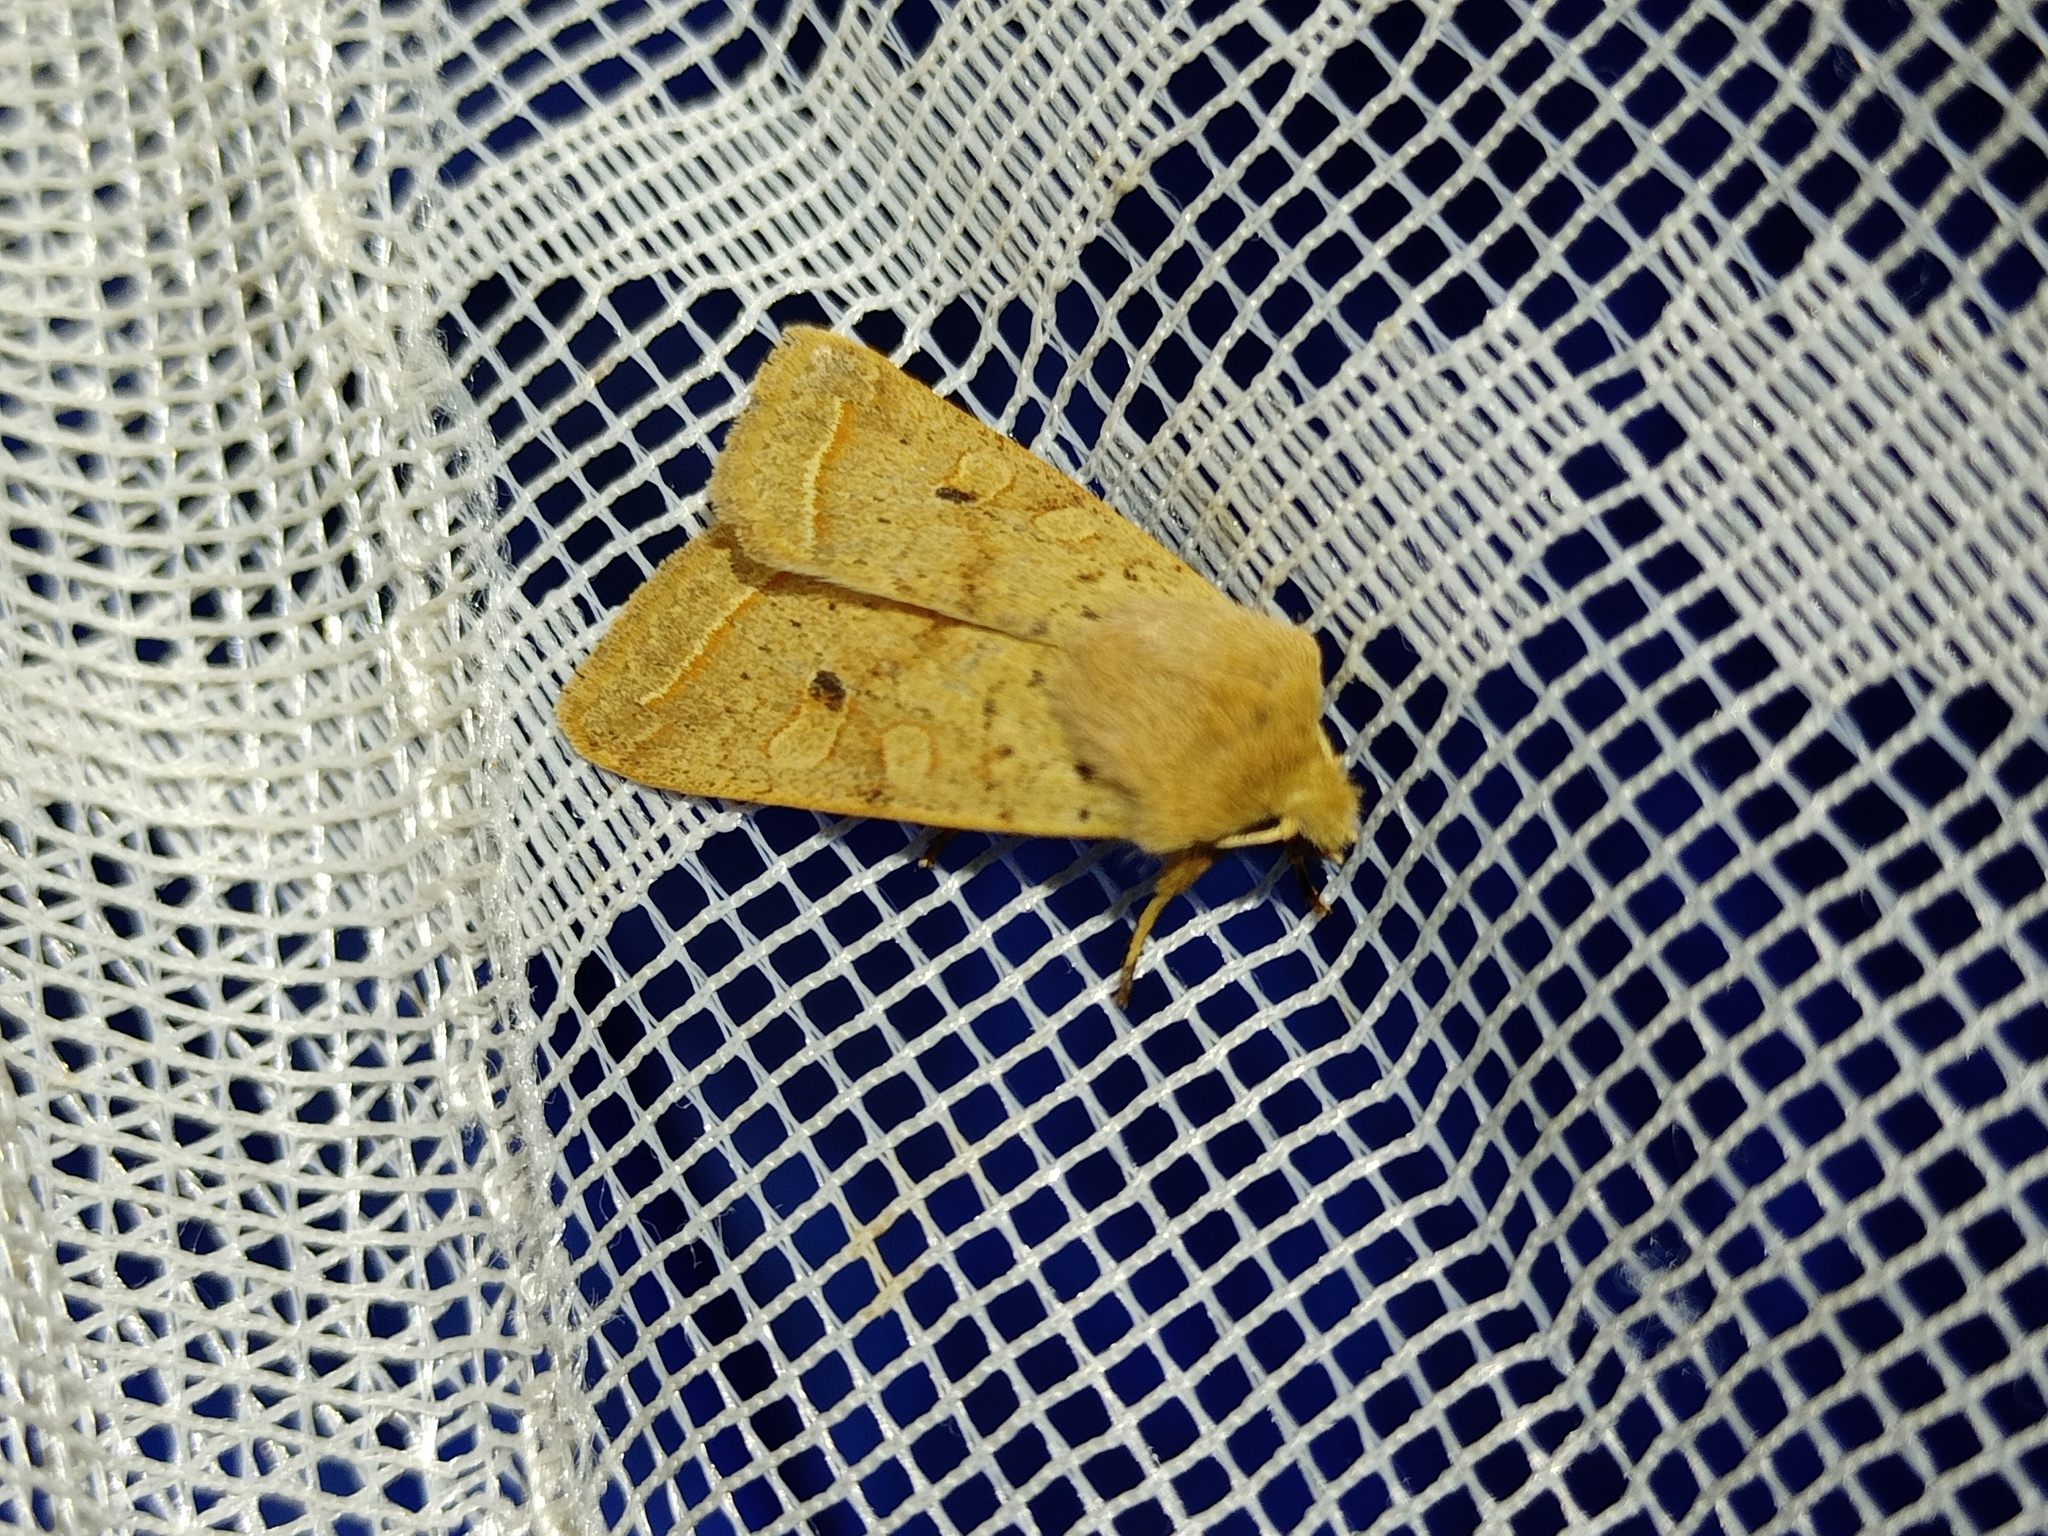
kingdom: Animalia
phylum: Arthropoda
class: Insecta
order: Lepidoptera
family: Noctuidae
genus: Agrochola
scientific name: Agrochola macilenta
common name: Yellow-line quaker
